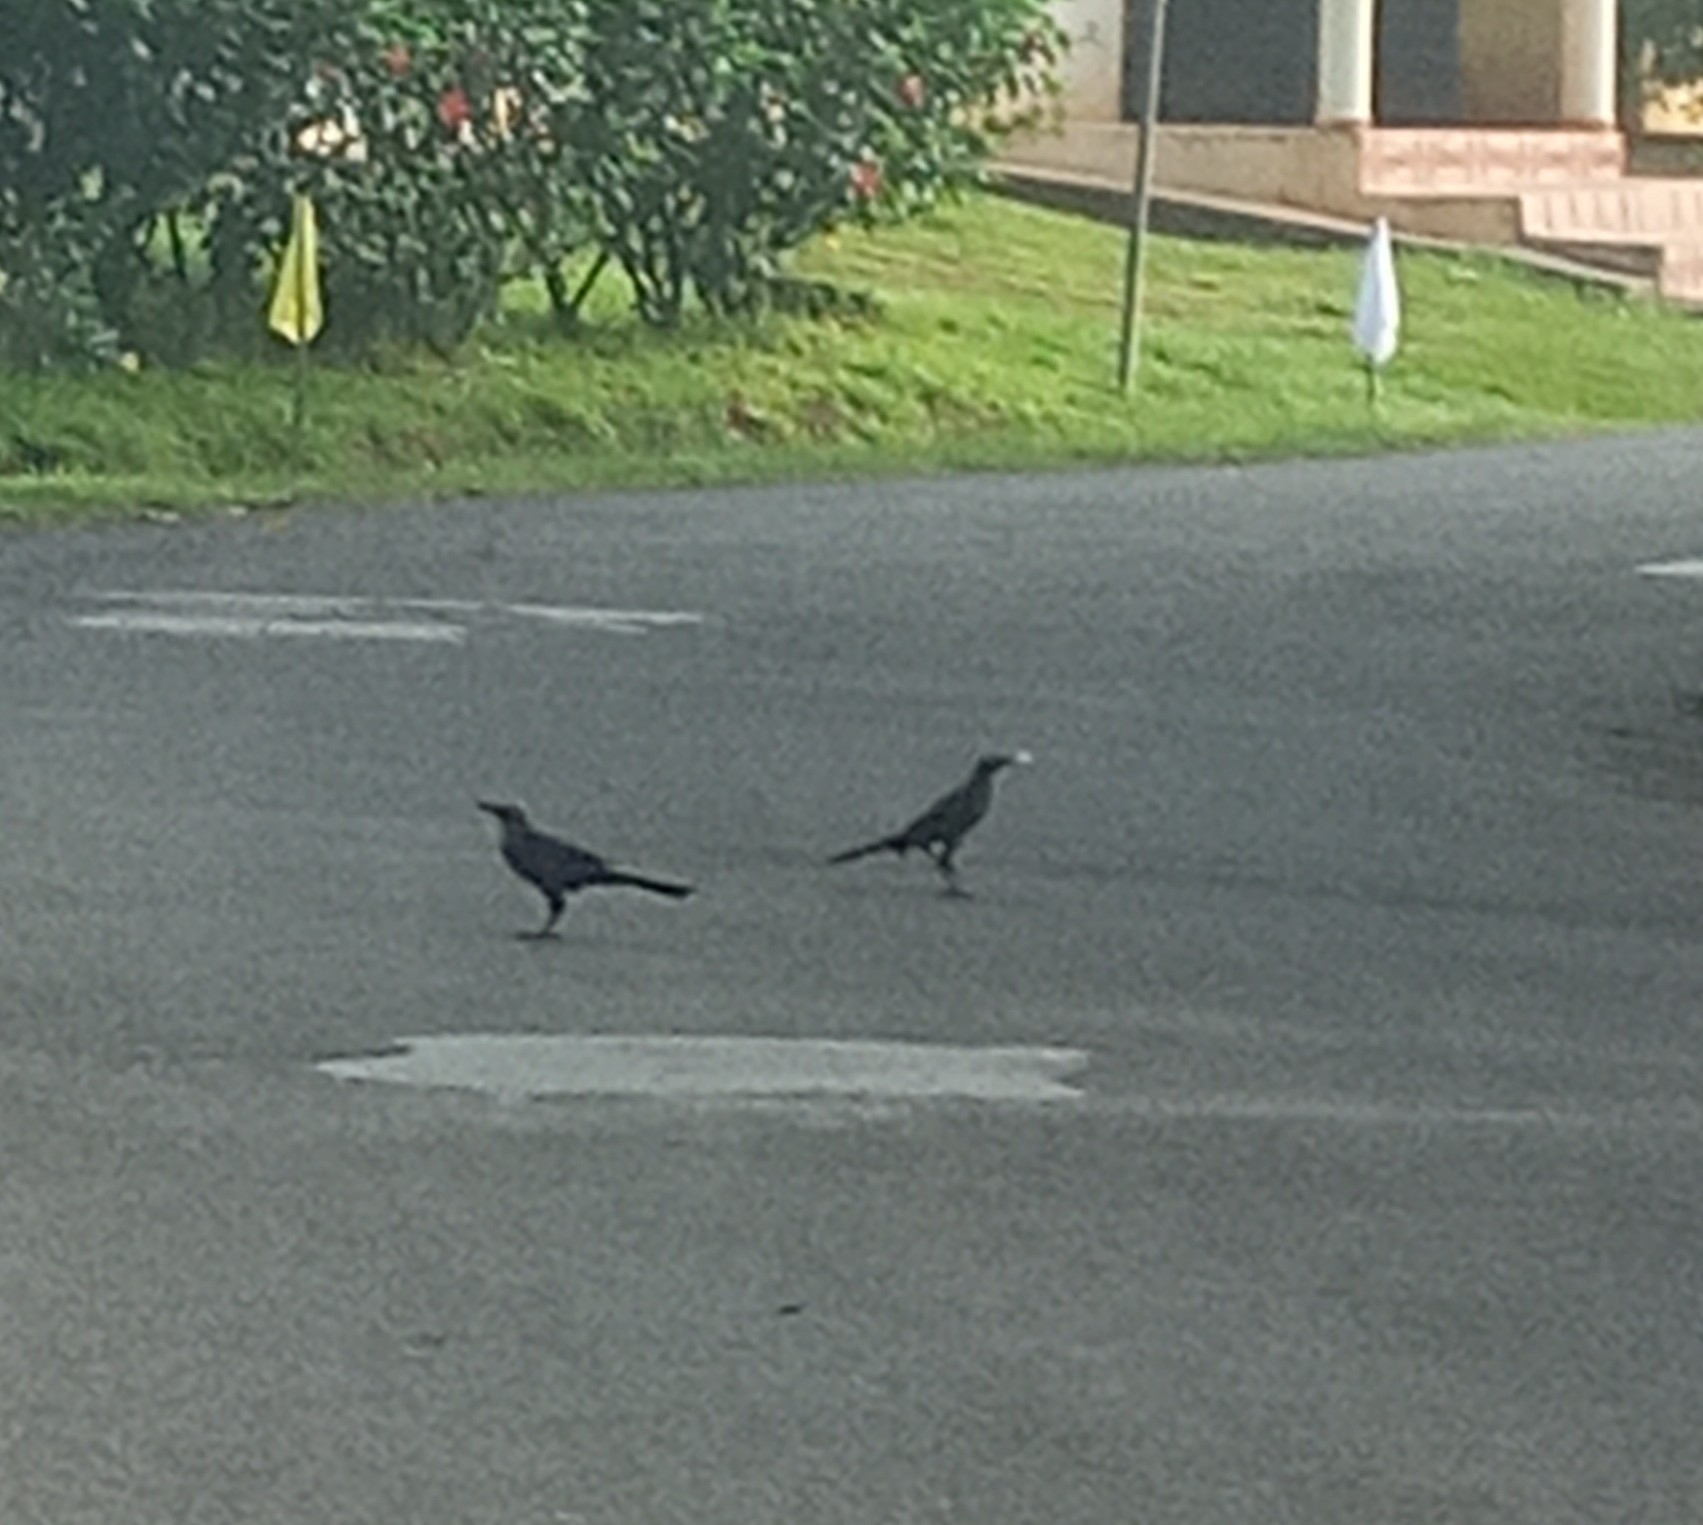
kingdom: Animalia
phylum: Chordata
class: Aves
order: Passeriformes
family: Icteridae
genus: Quiscalus
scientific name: Quiscalus mexicanus
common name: Great-tailed grackle
